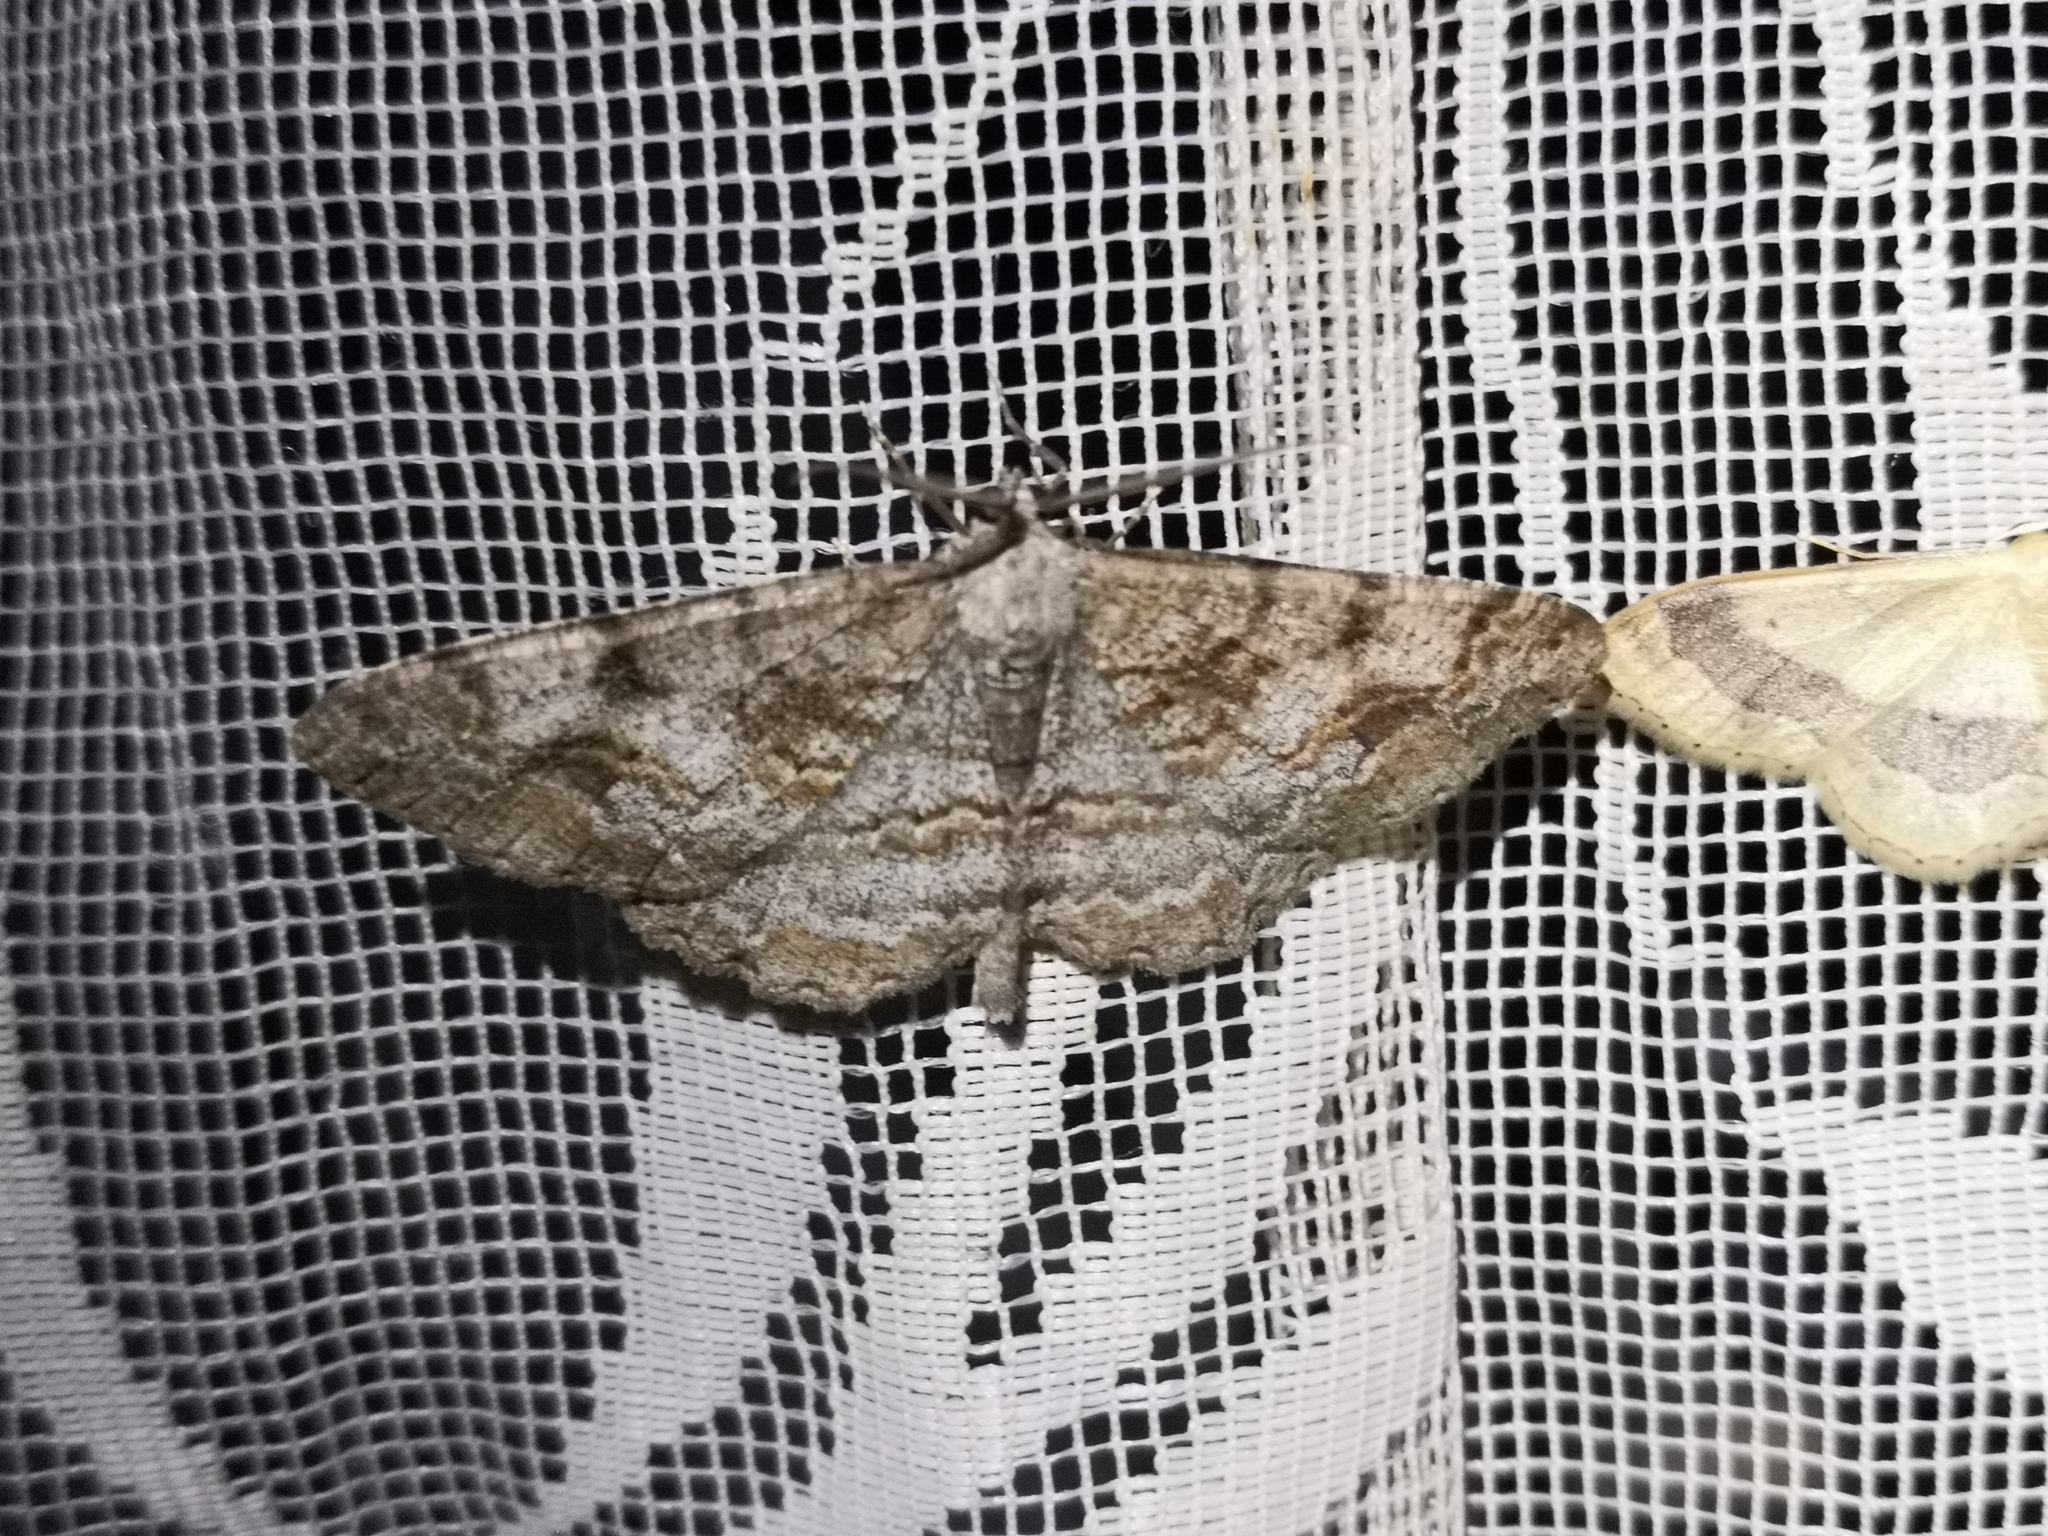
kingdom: Animalia
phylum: Arthropoda
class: Insecta
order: Lepidoptera
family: Geometridae
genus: Alcis
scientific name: Alcis repandata
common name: Mottled beauty
